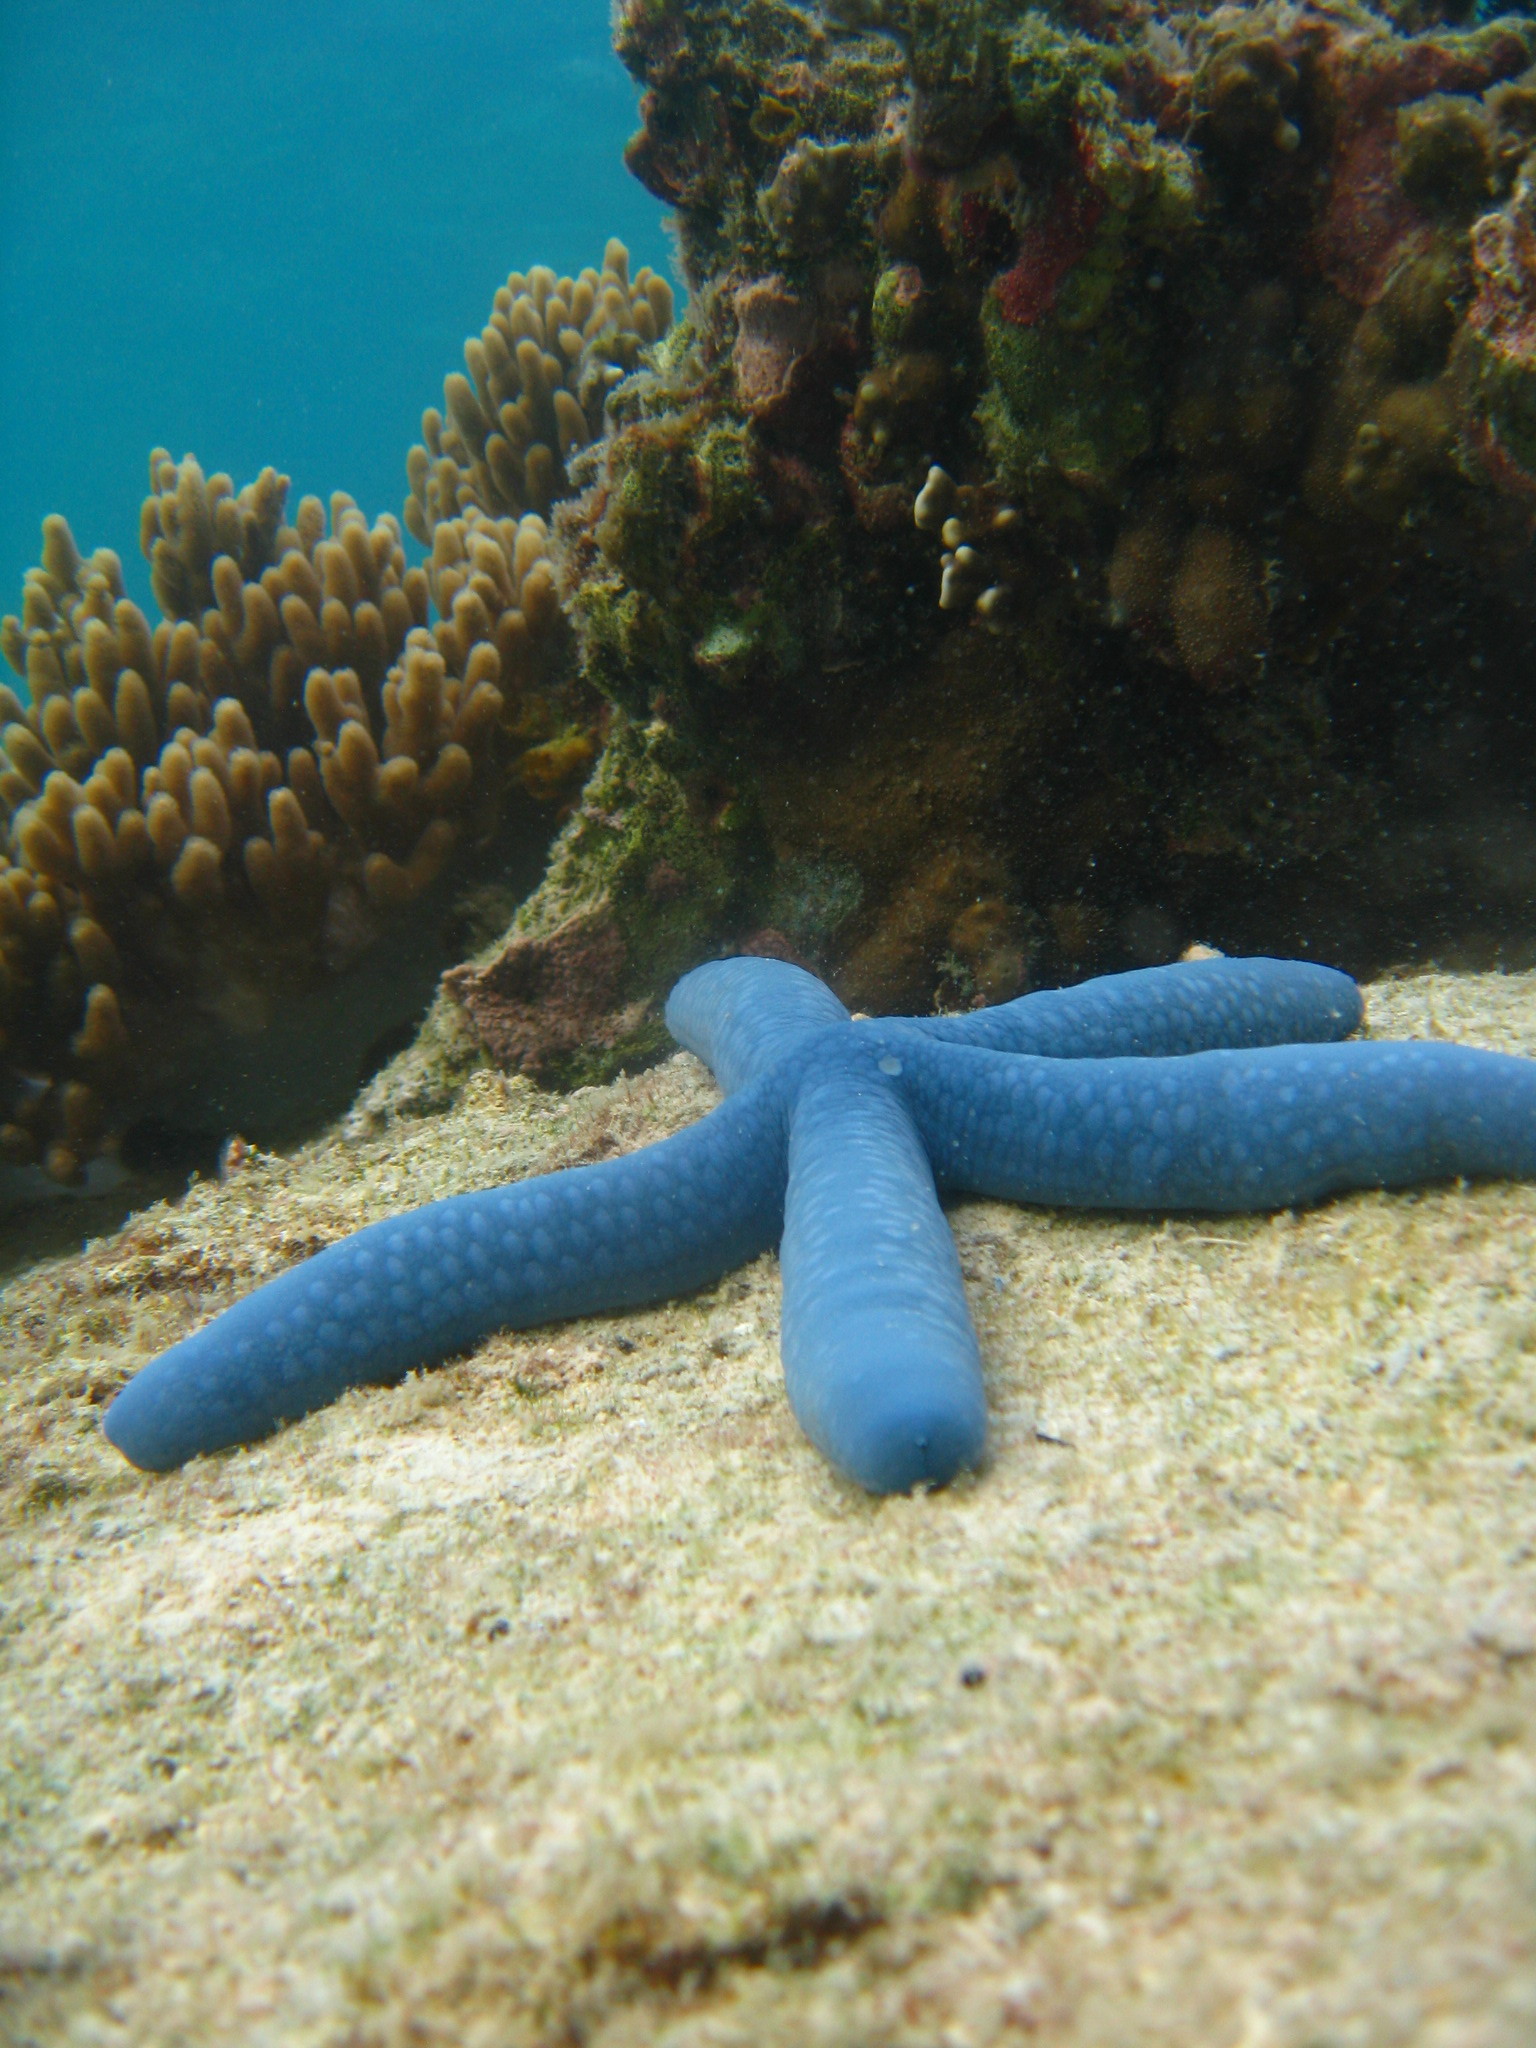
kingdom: Animalia
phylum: Echinodermata
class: Asteroidea
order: Valvatida
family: Ophidiasteridae
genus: Linckia
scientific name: Linckia laevigata
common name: Azure sea star
